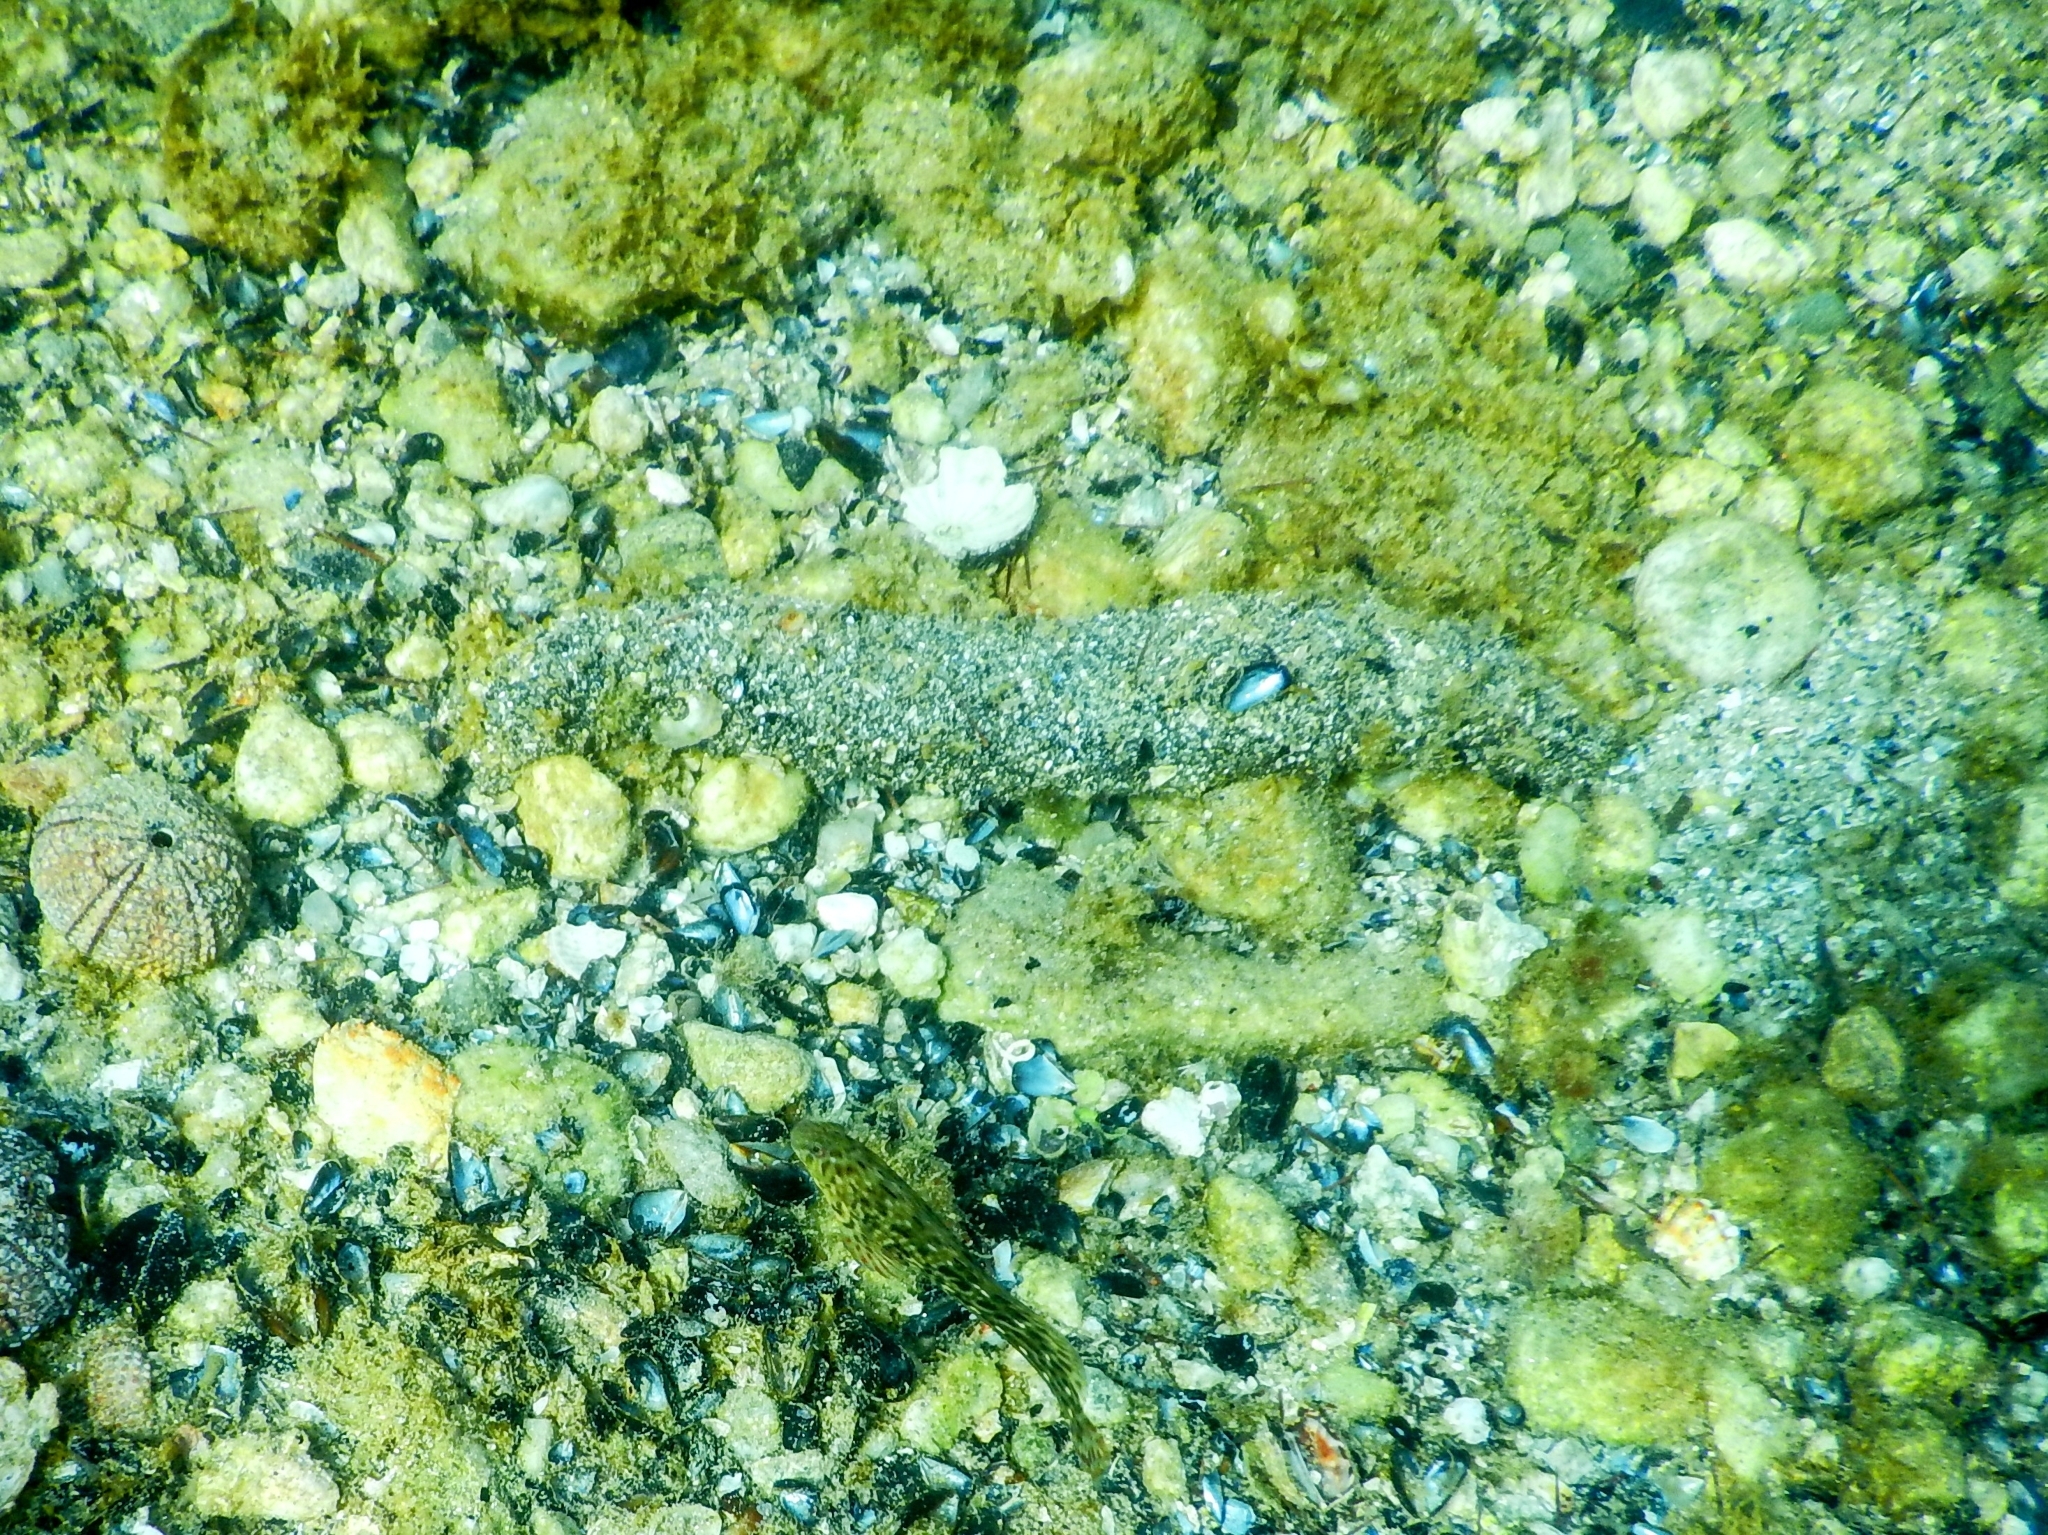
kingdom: Animalia
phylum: Echinodermata
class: Holothuroidea
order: Holothuriida
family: Holothuriidae
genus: Holothuria
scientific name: Holothuria
